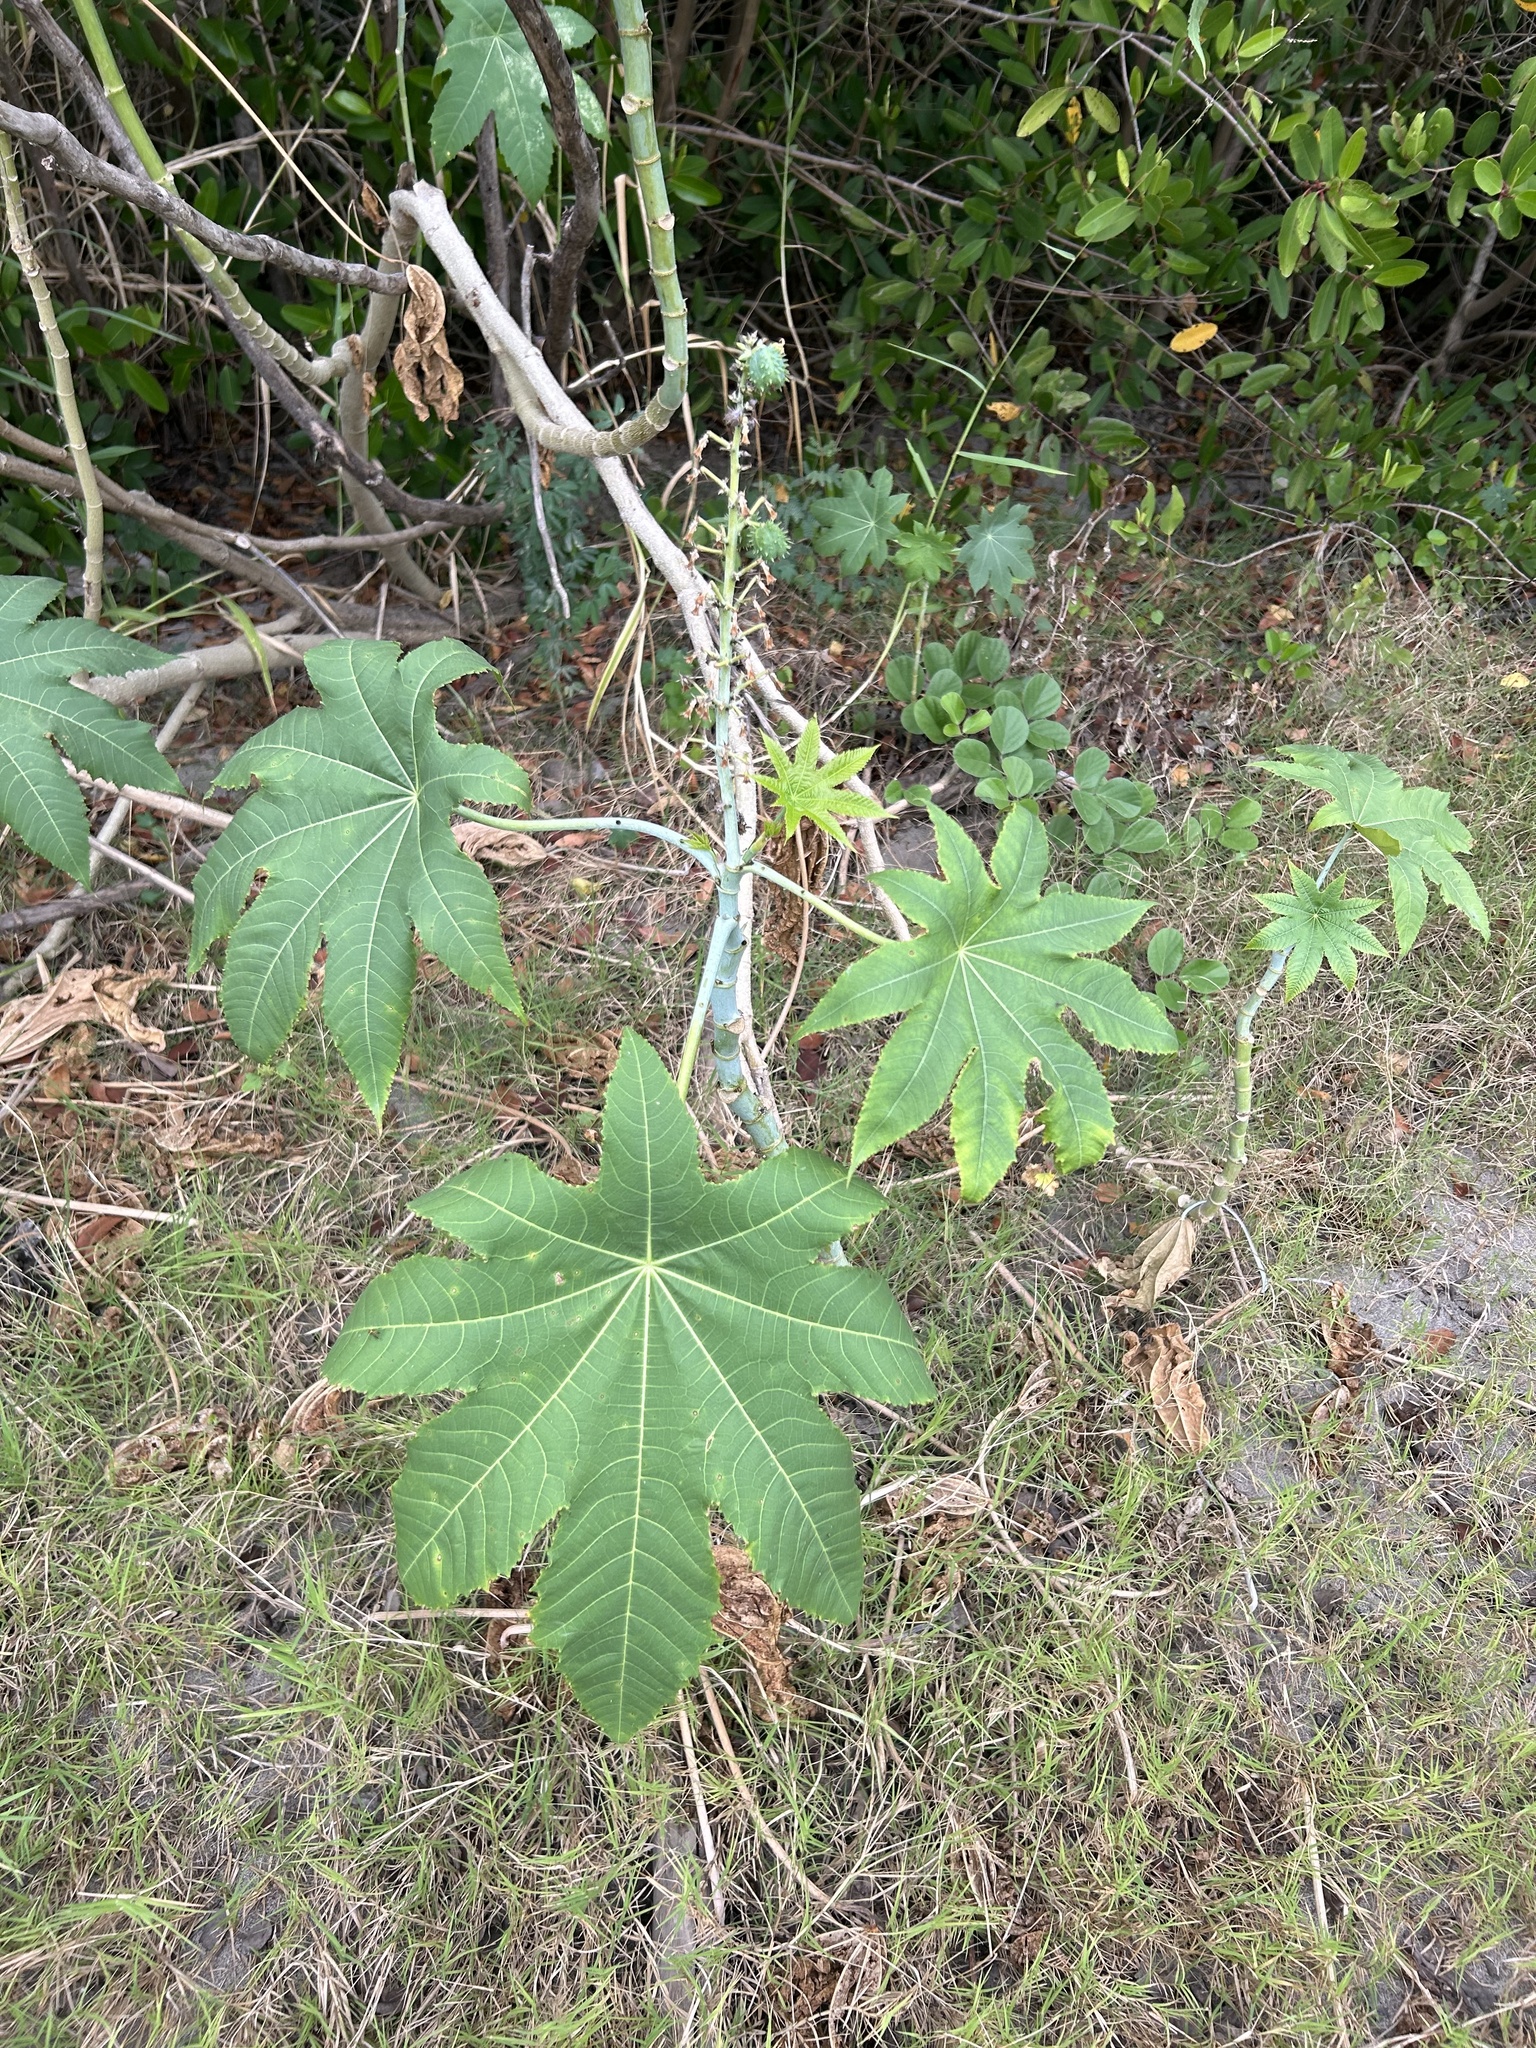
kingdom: Plantae
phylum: Tracheophyta
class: Magnoliopsida
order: Malpighiales
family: Euphorbiaceae
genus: Ricinus
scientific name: Ricinus communis
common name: Castor-oil-plant
